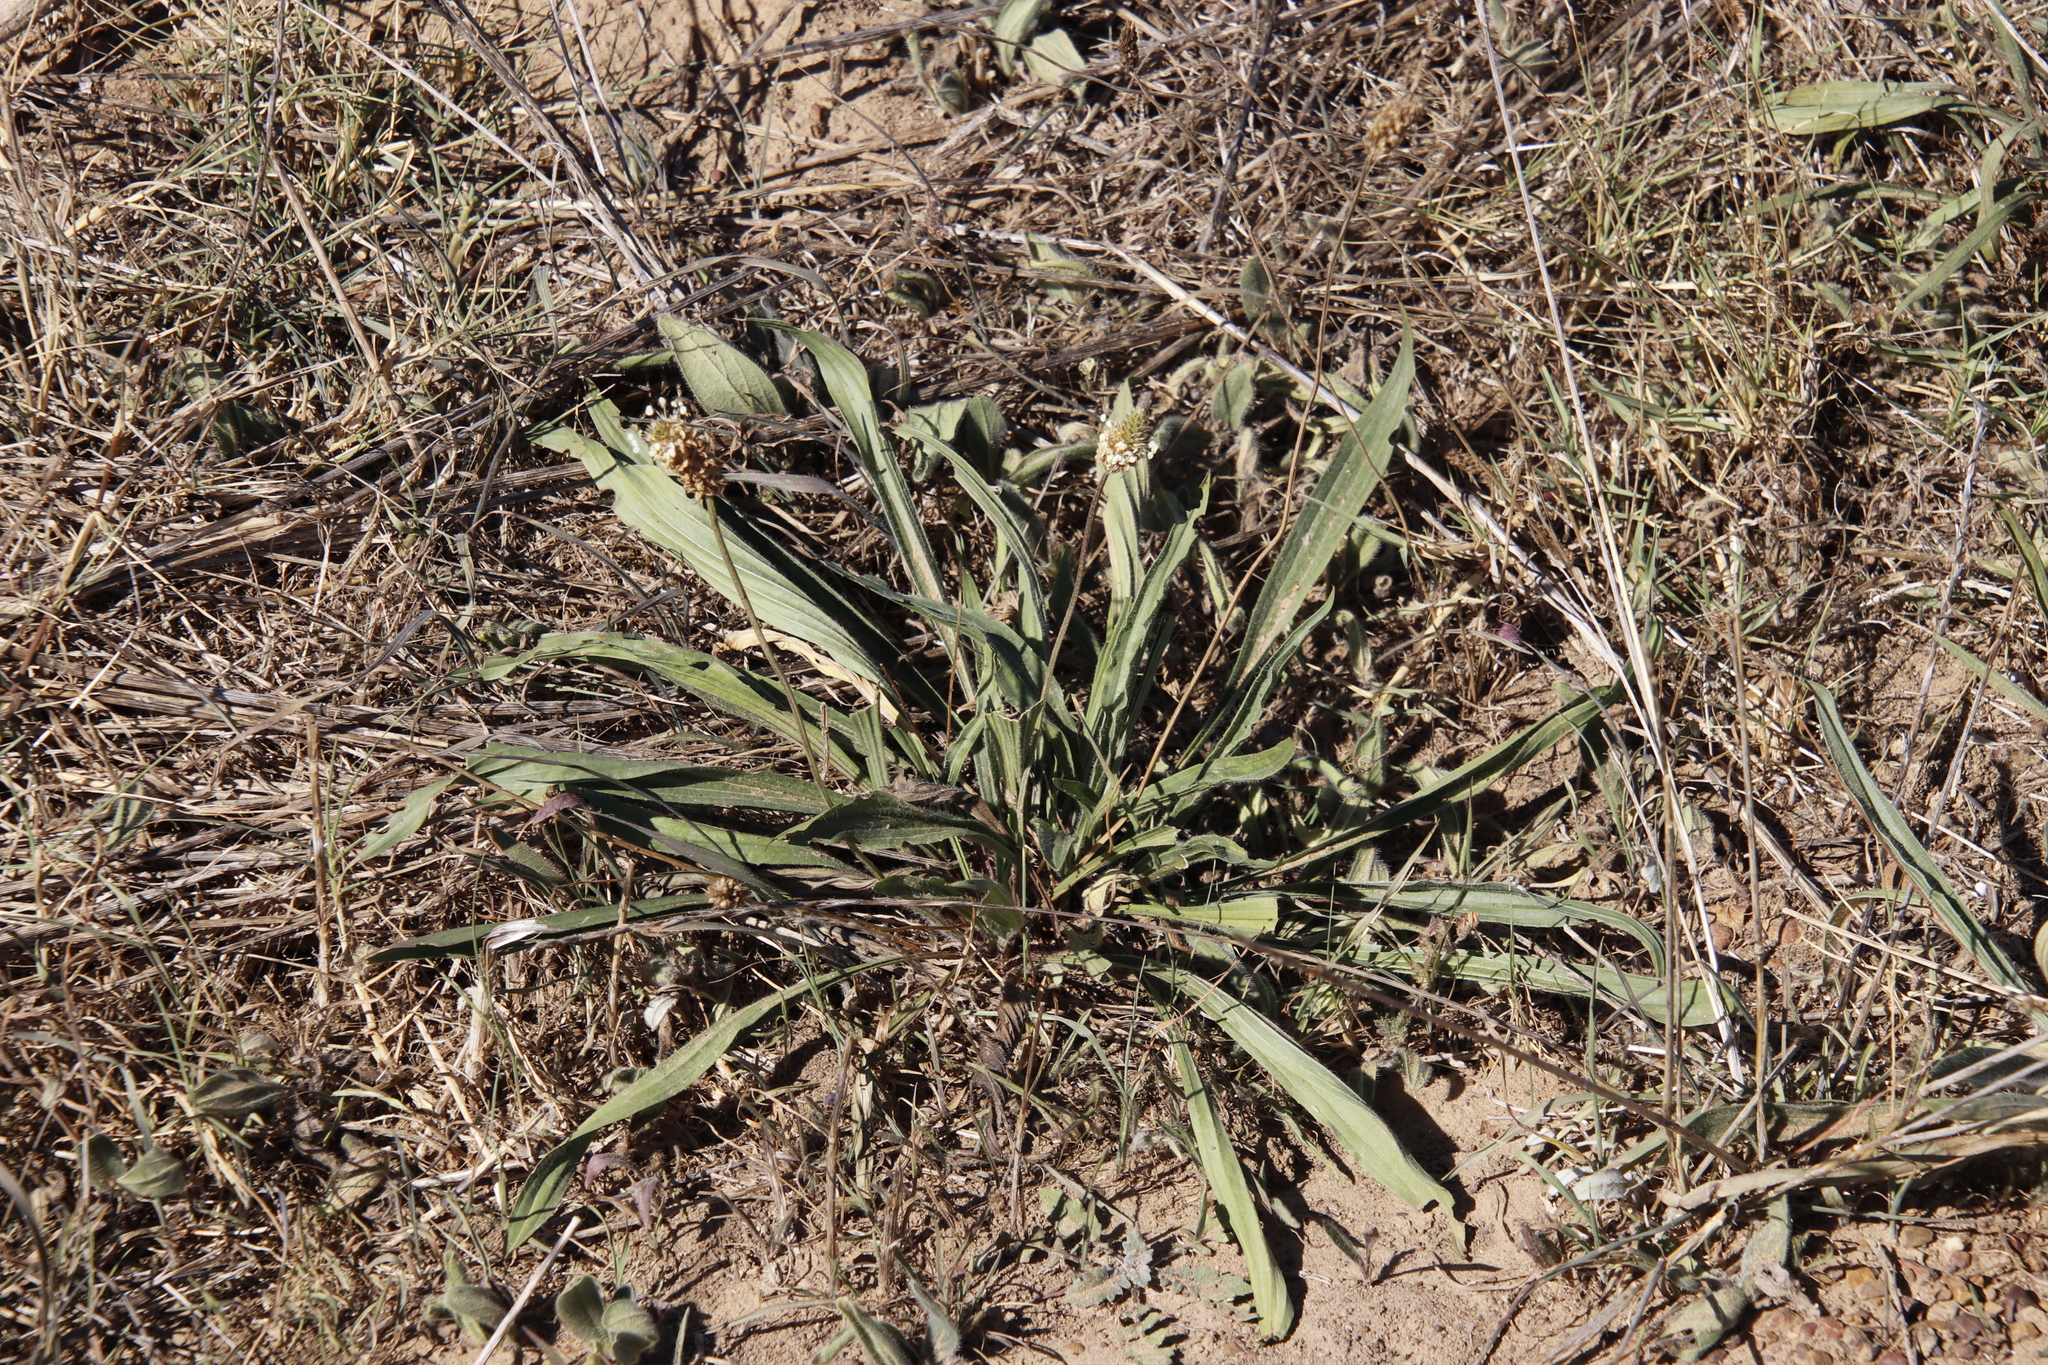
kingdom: Plantae
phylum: Tracheophyta
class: Magnoliopsida
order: Lamiales
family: Plantaginaceae
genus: Plantago
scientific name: Plantago lanceolata
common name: Ribwort plantain
